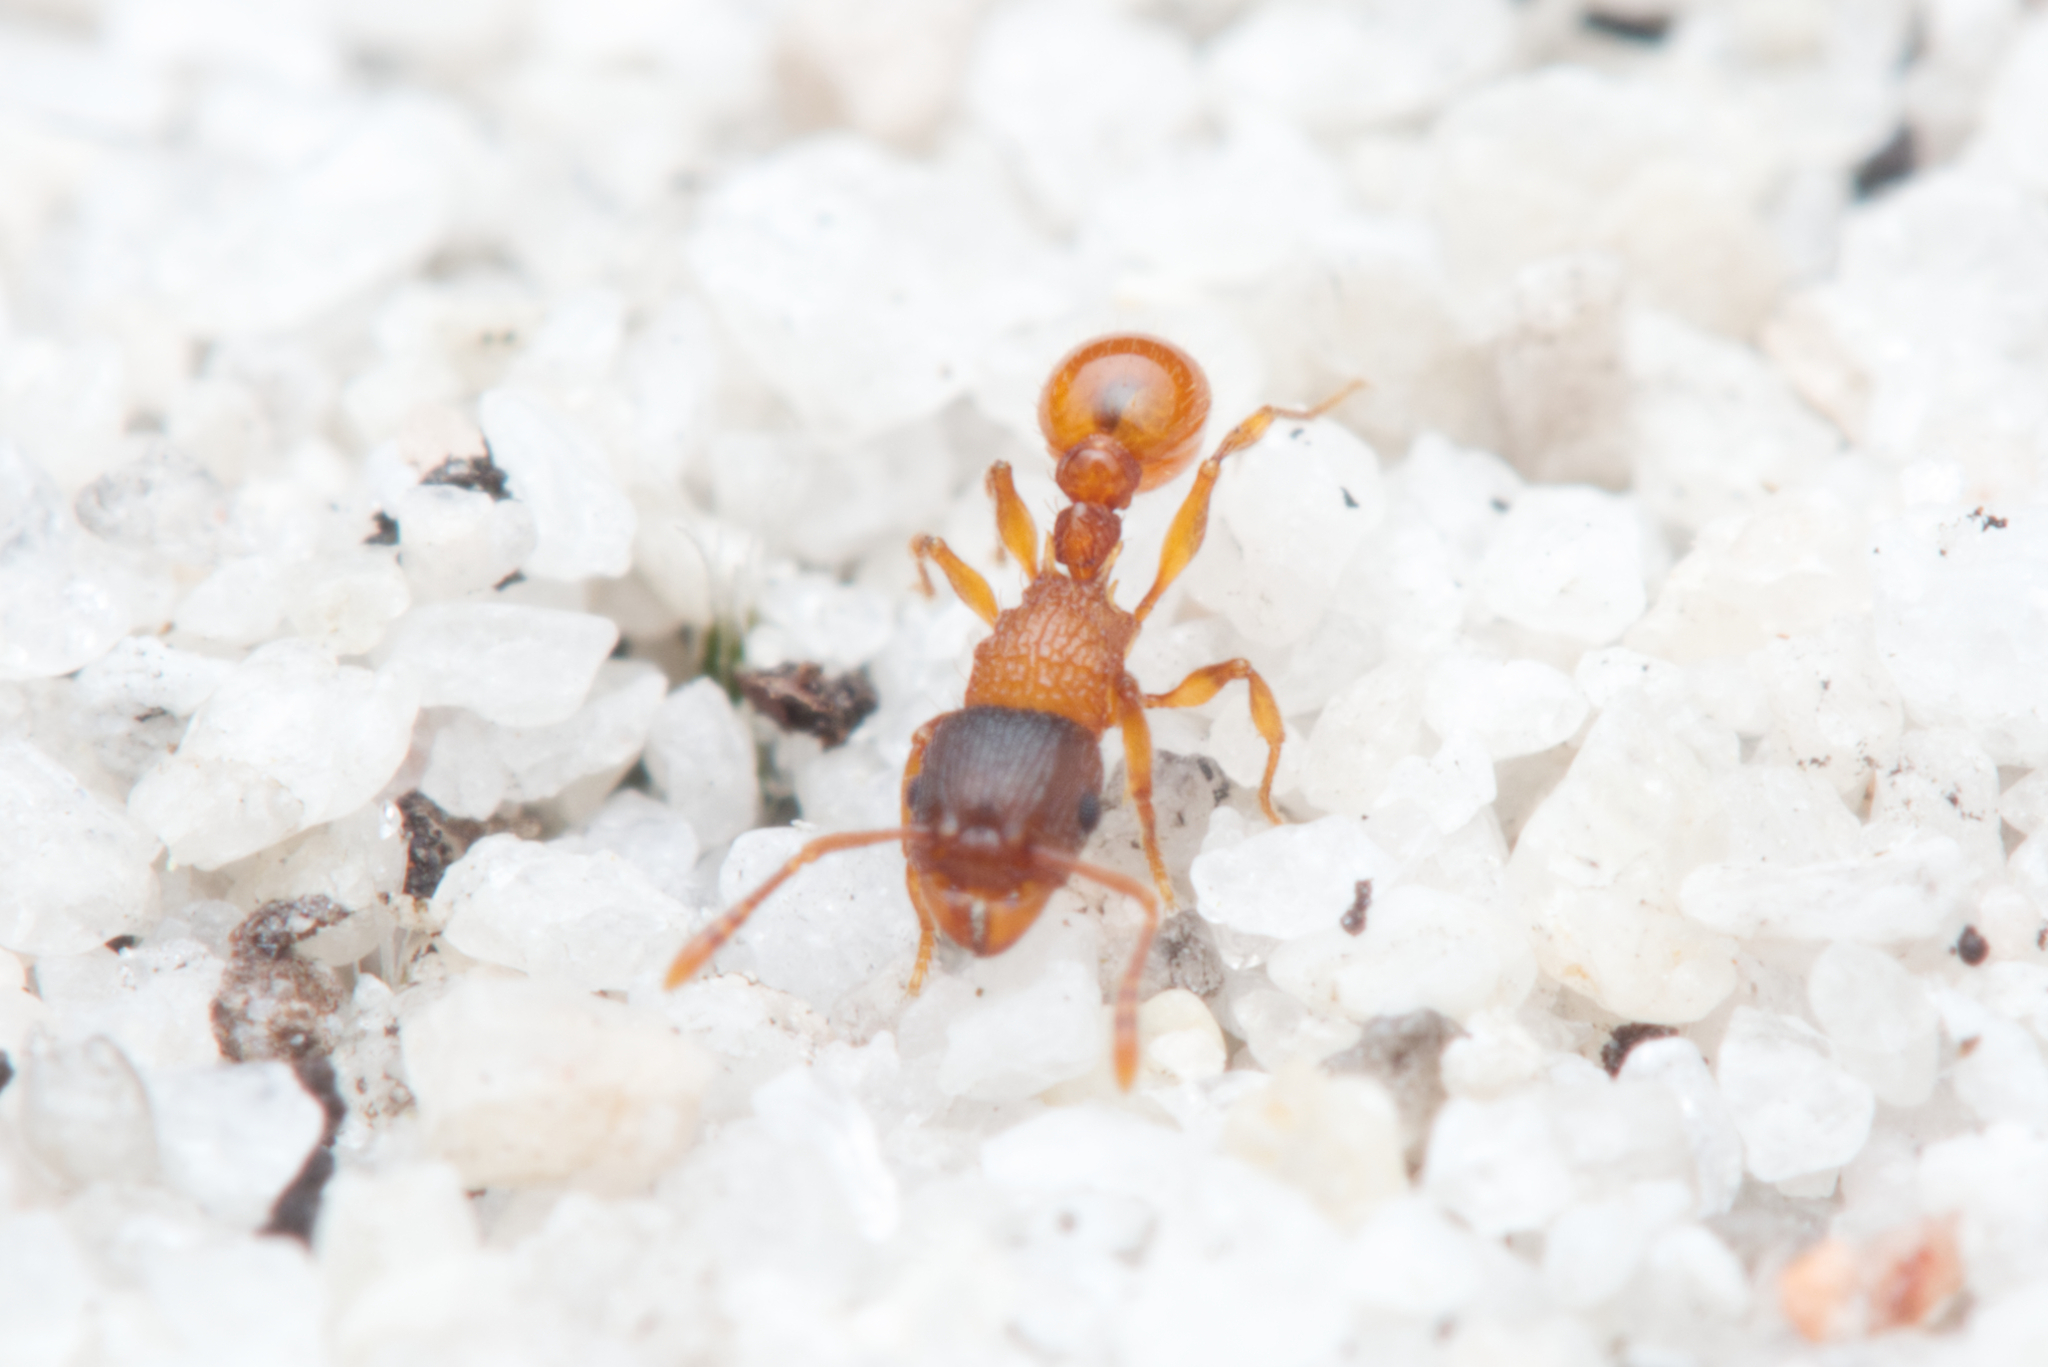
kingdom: Animalia
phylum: Arthropoda
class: Insecta
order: Hymenoptera
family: Formicidae
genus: Tetramorium
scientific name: Tetramorium fuscipes
